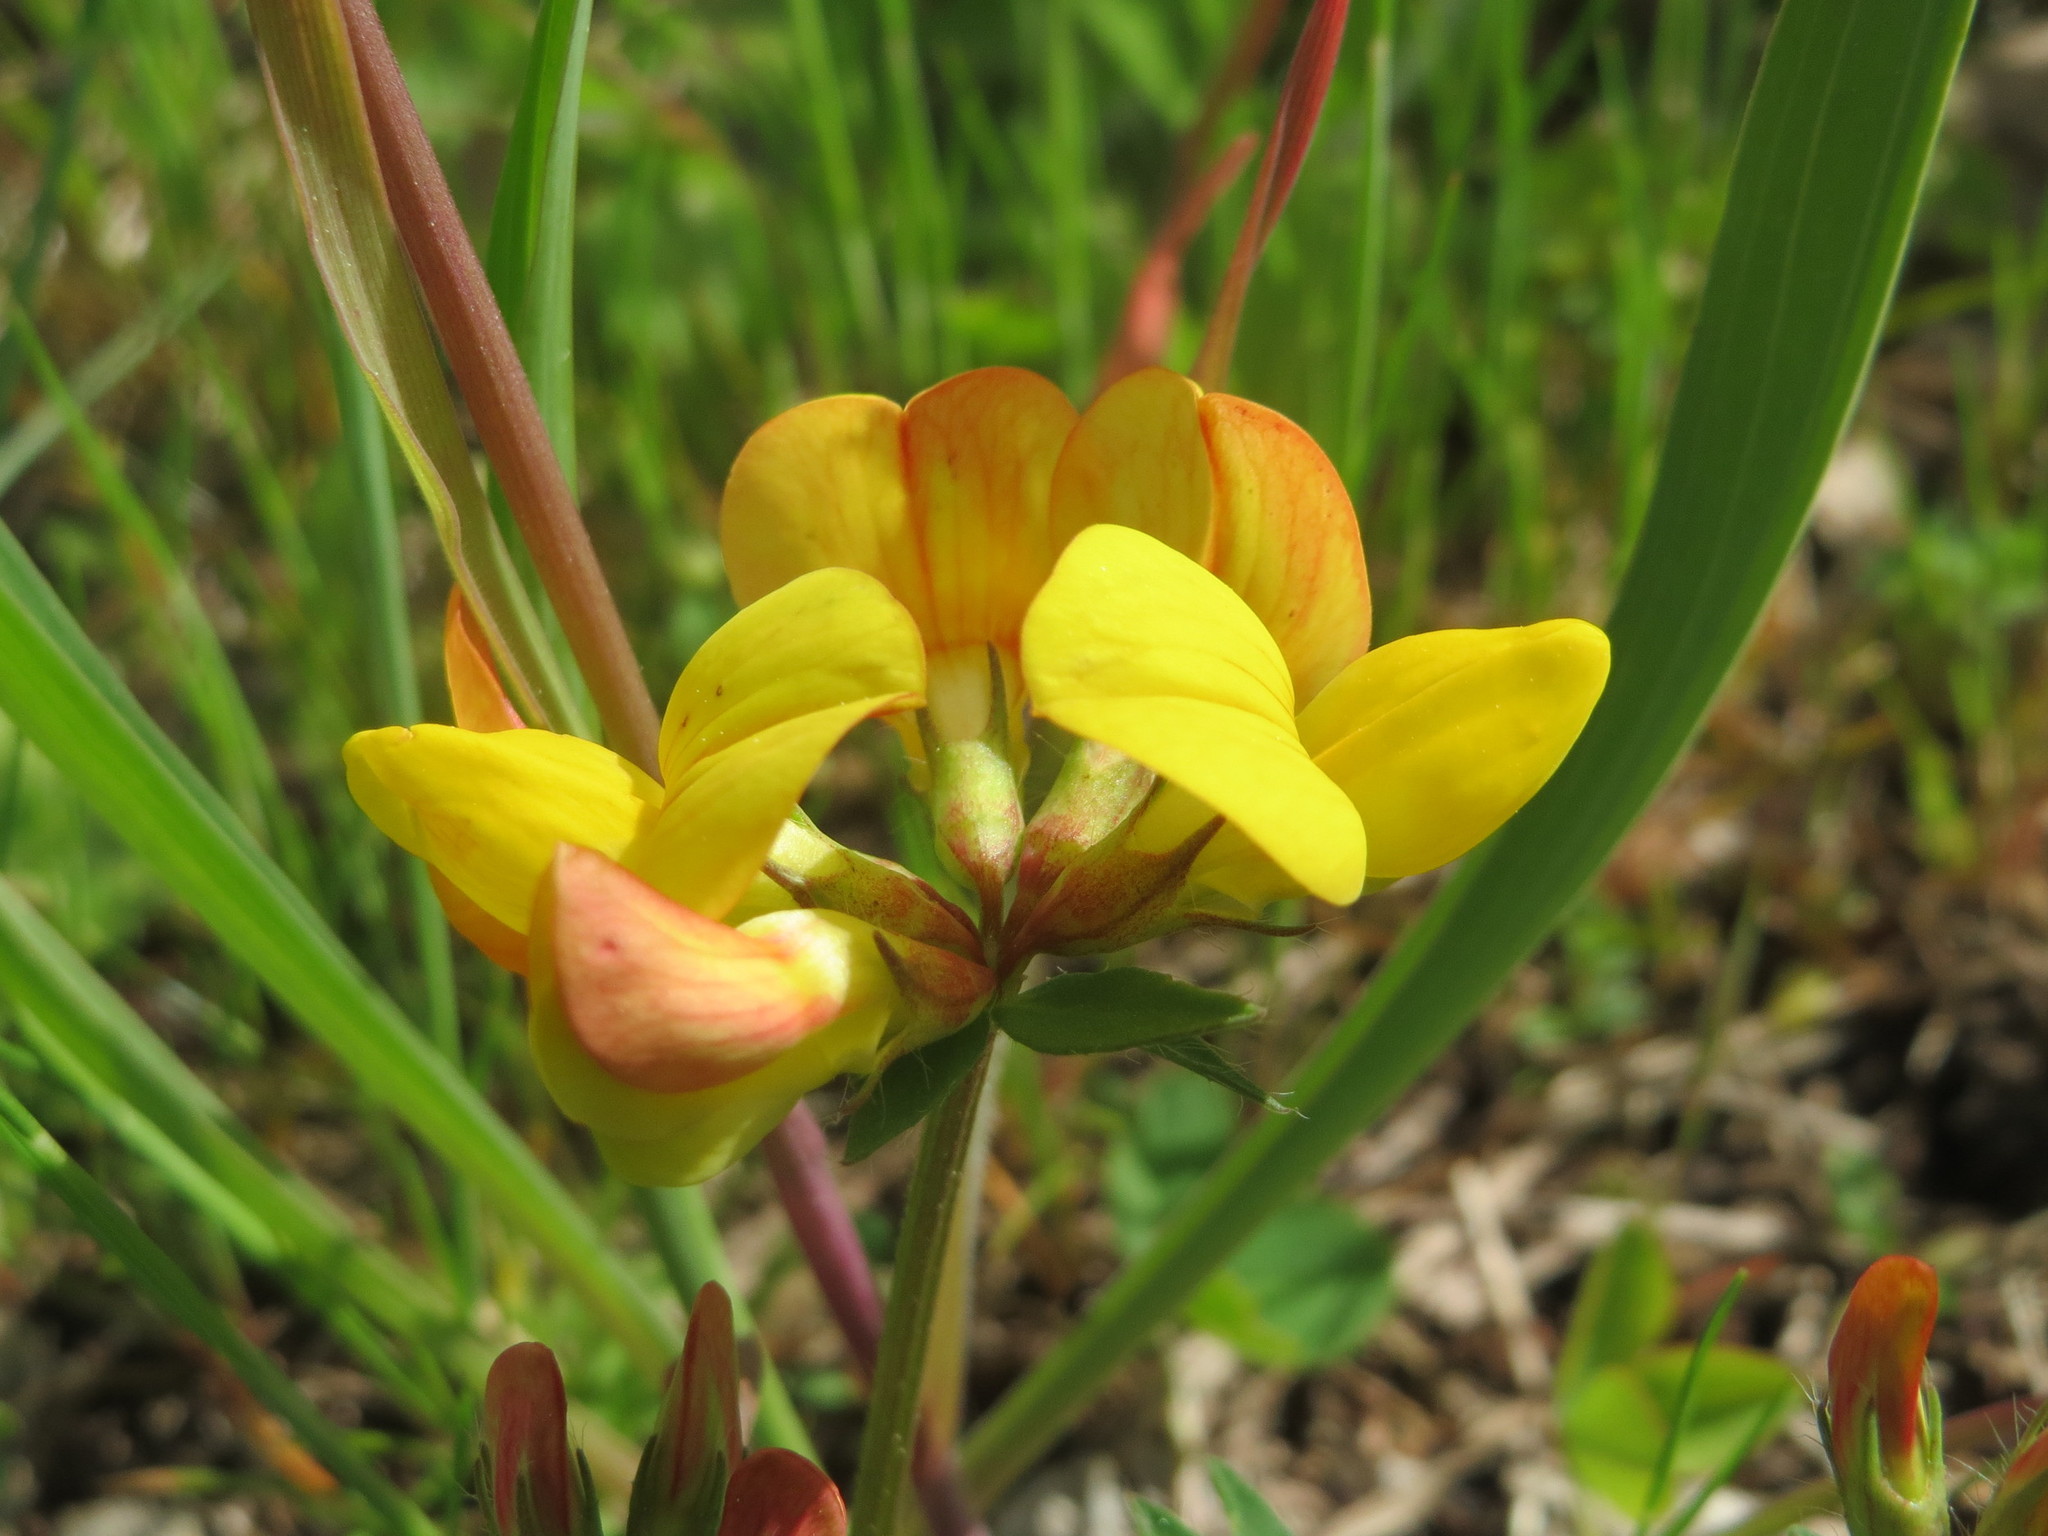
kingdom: Plantae
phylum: Tracheophyta
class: Magnoliopsida
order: Fabales
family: Fabaceae
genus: Lotus
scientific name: Lotus corniculatus
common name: Common bird's-foot-trefoil
